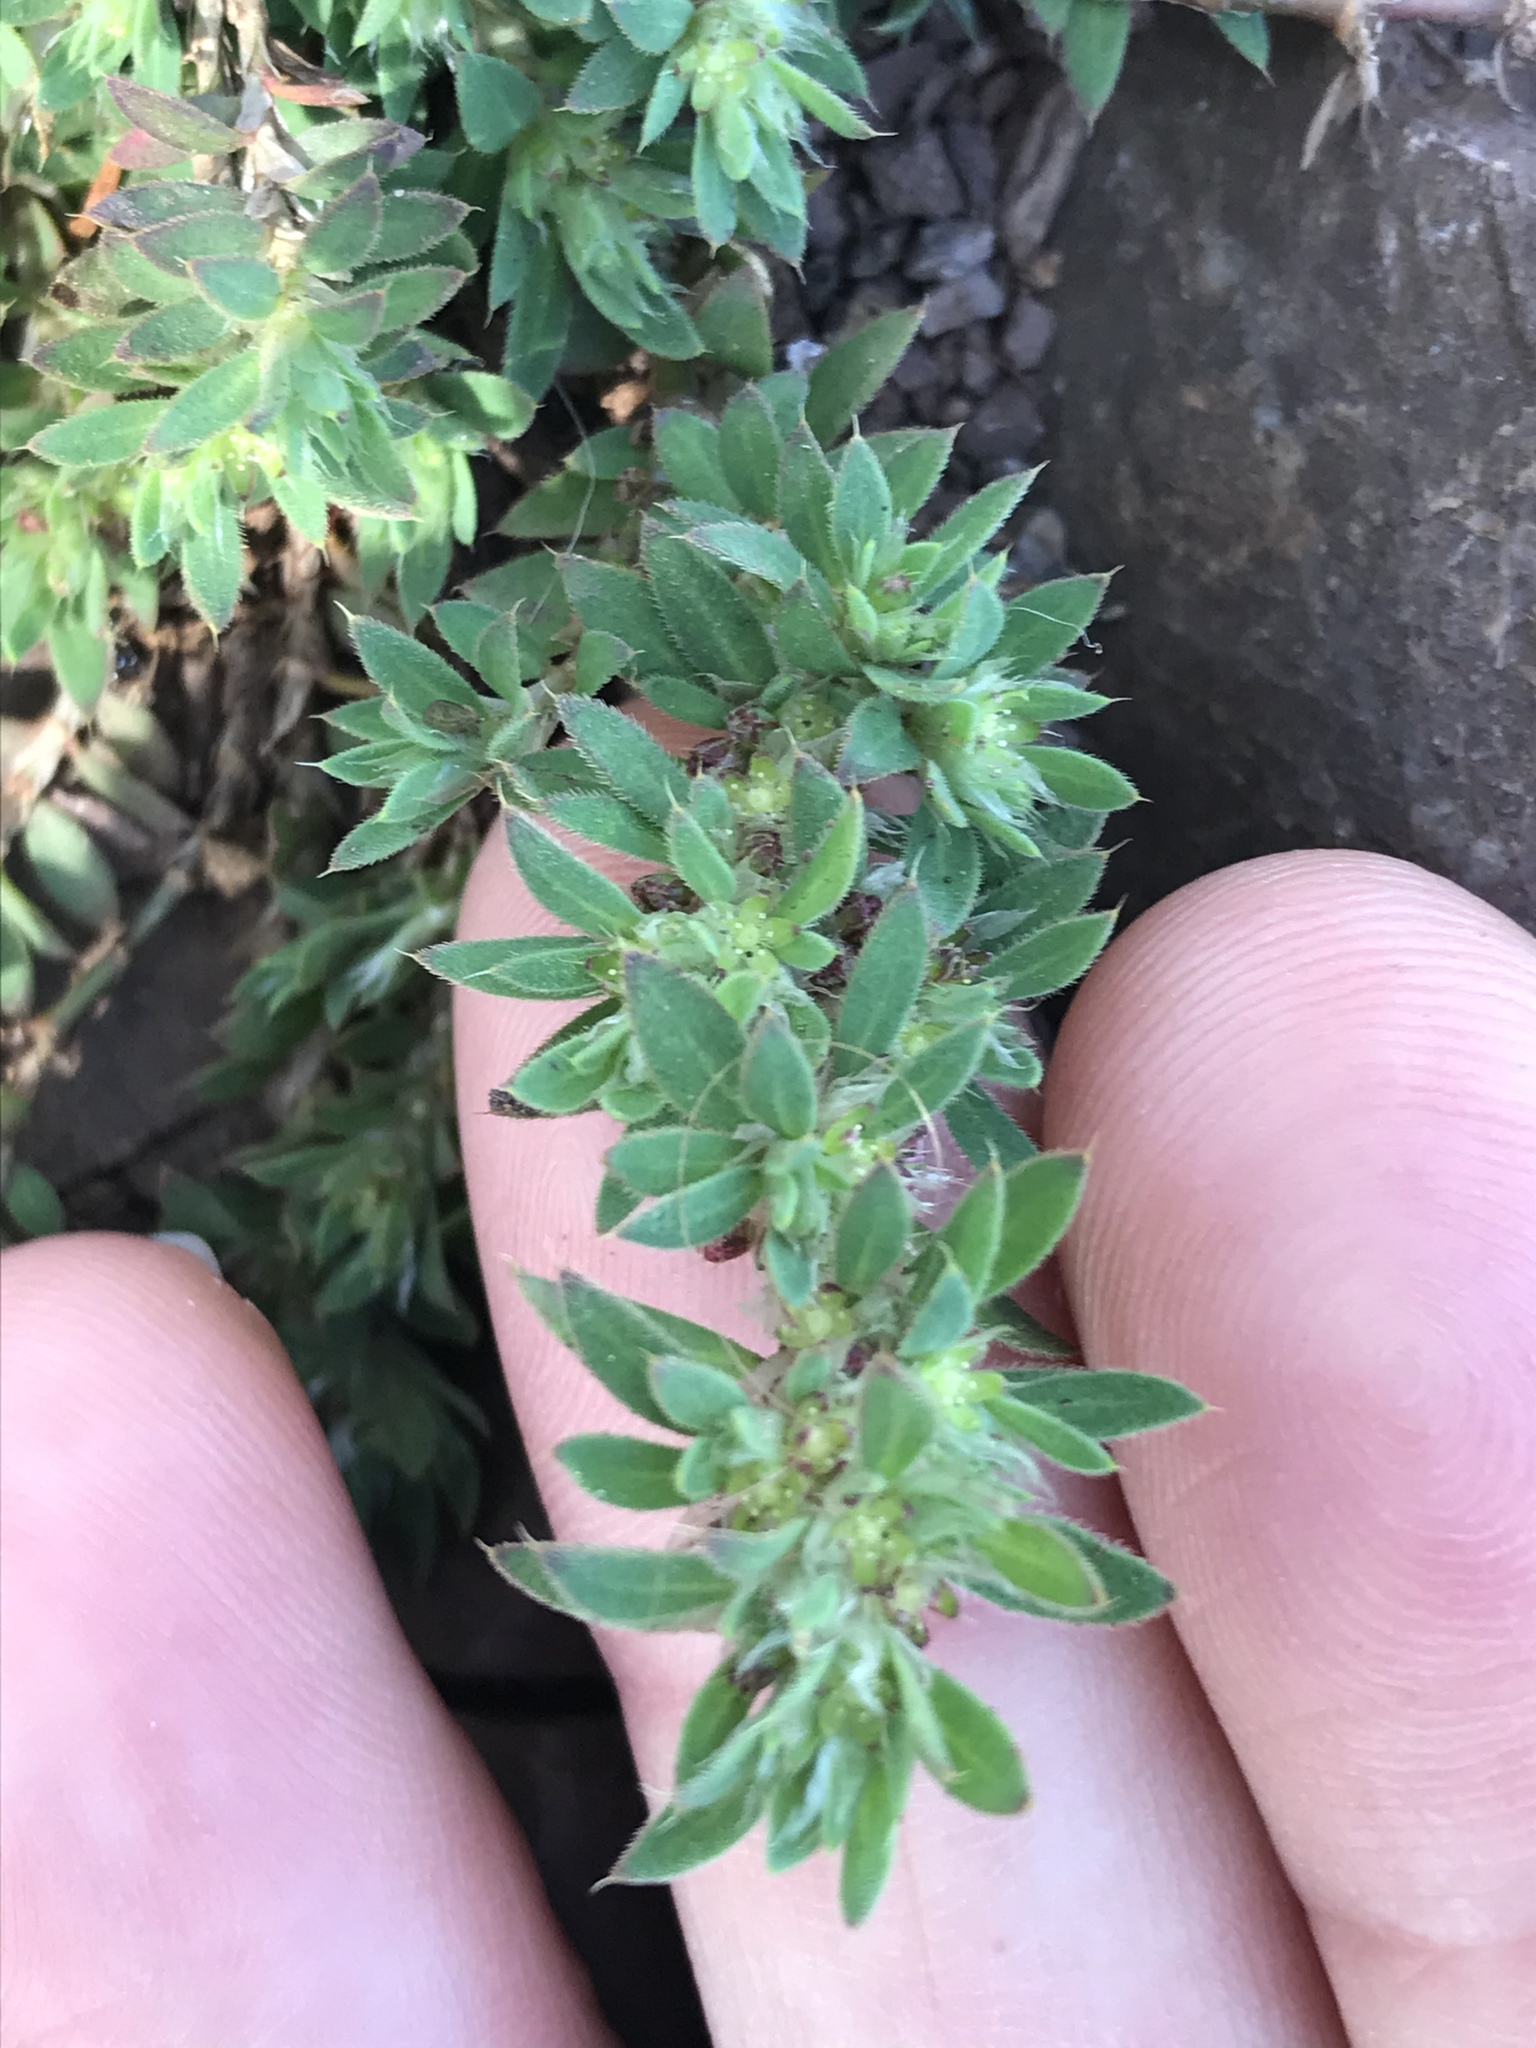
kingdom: Plantae
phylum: Tracheophyta
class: Magnoliopsida
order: Caryophyllales
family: Caryophyllaceae
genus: Cardionema
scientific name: Cardionema ramosissima
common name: Sandcarpet
